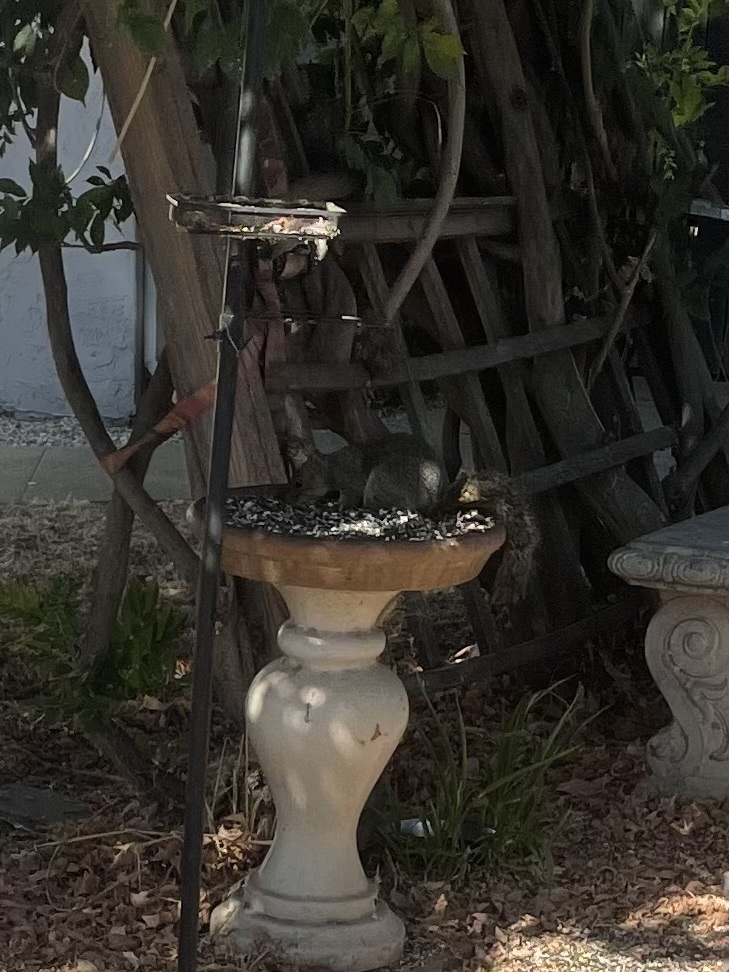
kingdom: Animalia
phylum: Chordata
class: Mammalia
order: Rodentia
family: Sciuridae
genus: Sciurus
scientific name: Sciurus niger
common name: Fox squirrel
